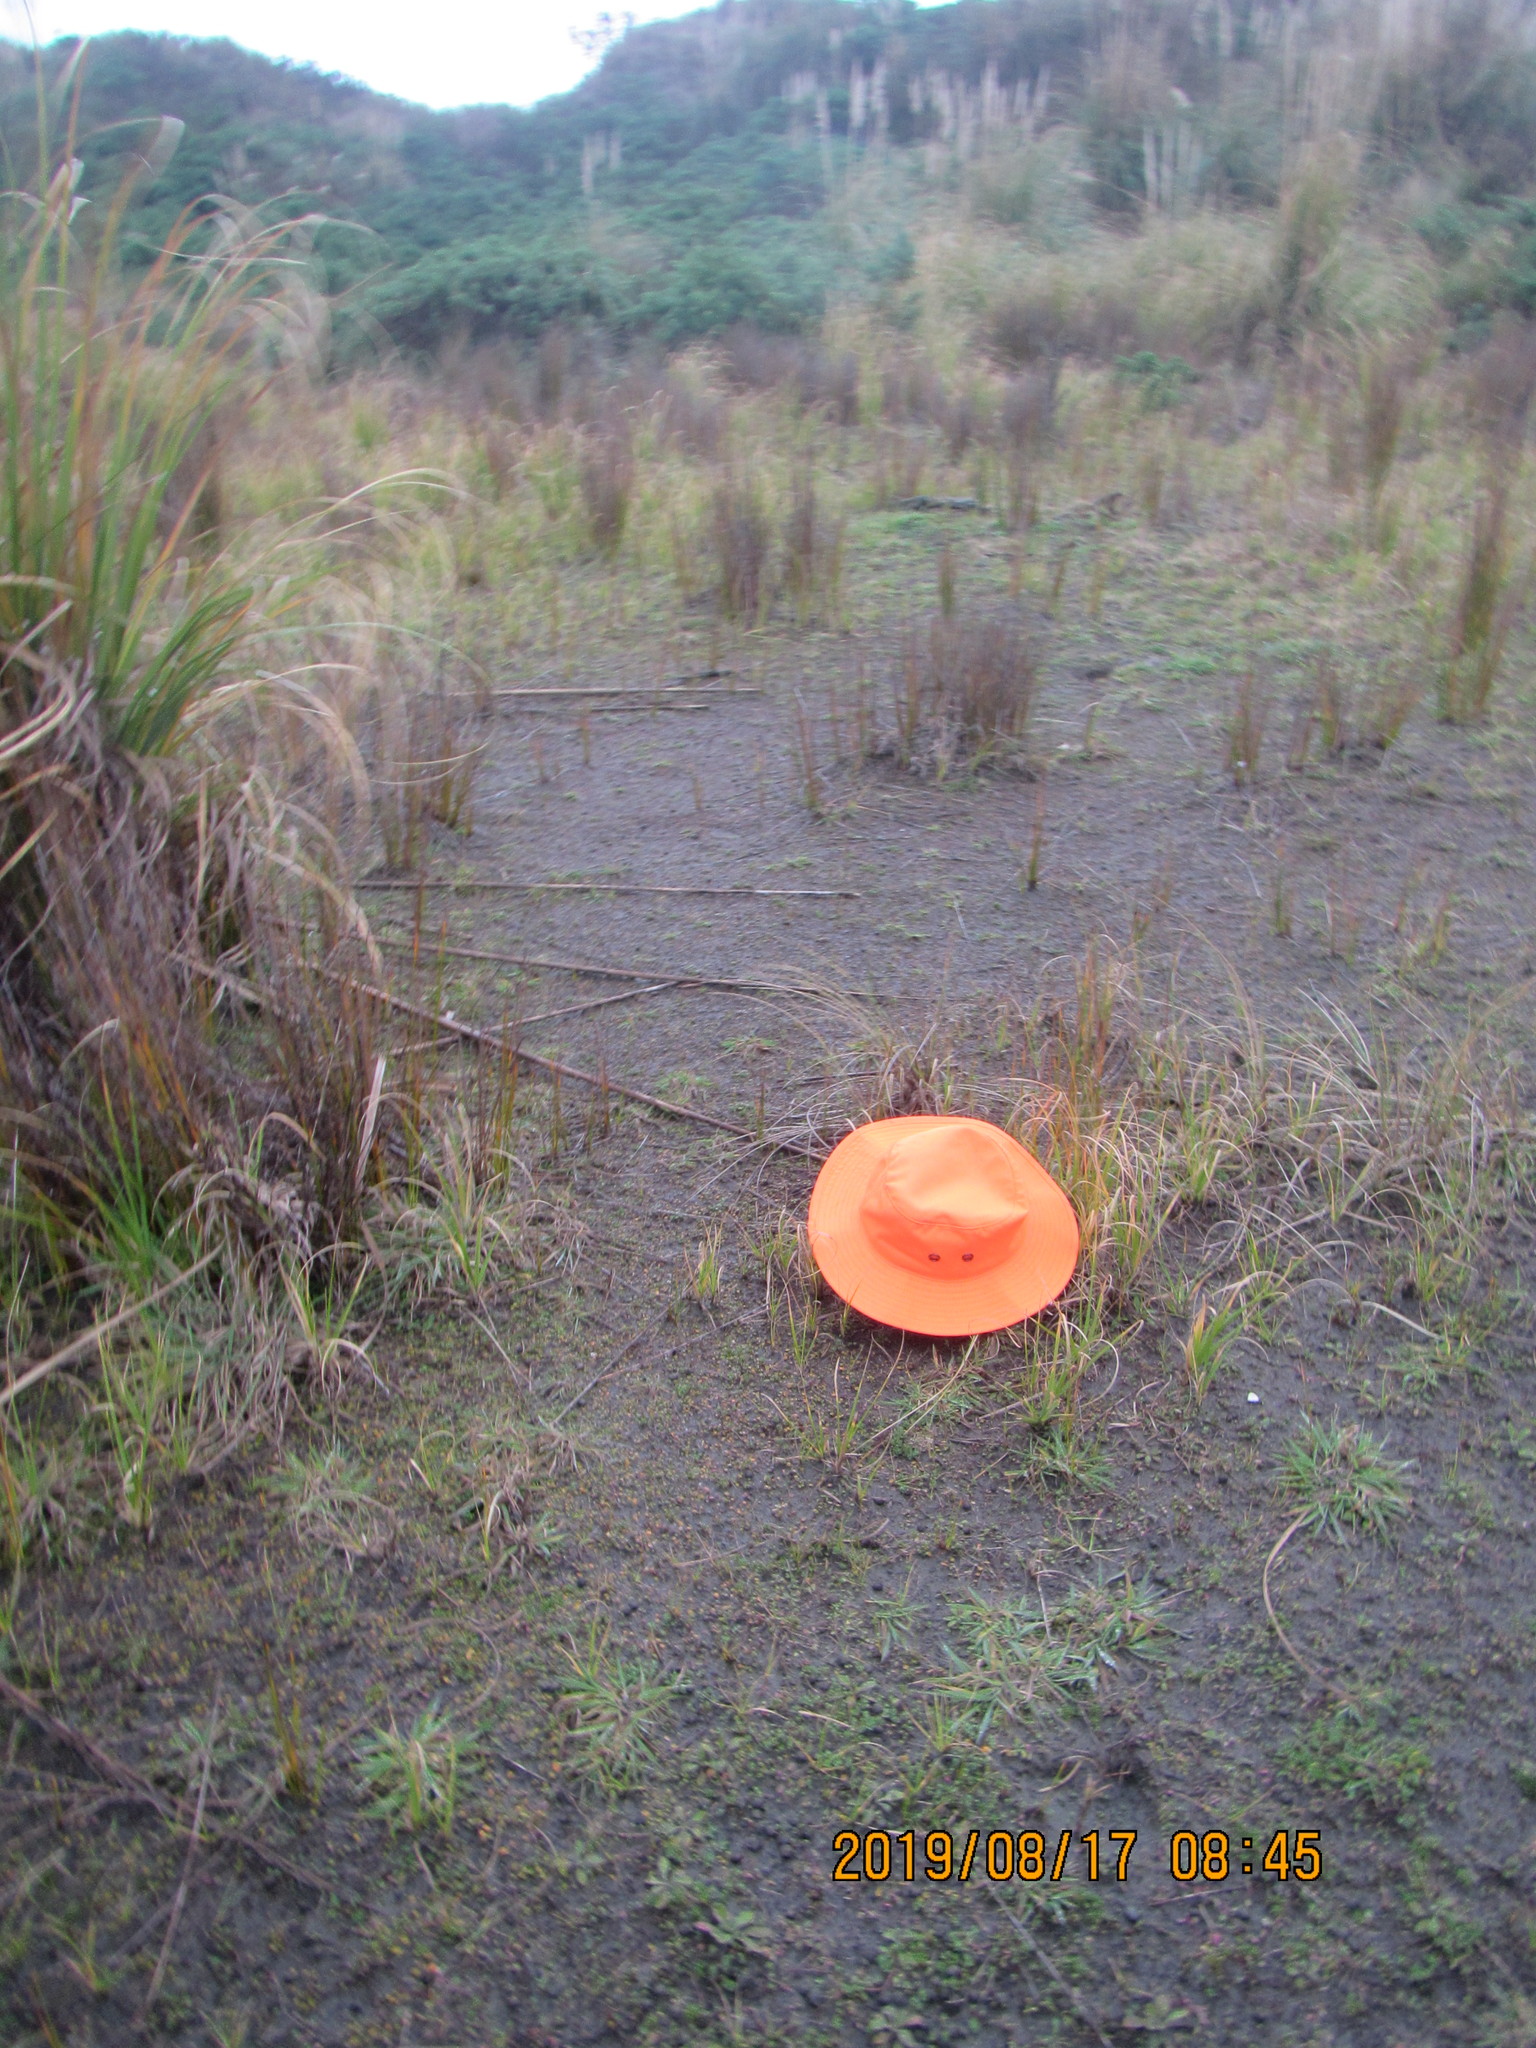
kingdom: Plantae
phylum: Tracheophyta
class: Magnoliopsida
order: Asterales
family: Goodeniaceae
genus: Goodenia
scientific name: Goodenia heenanii
